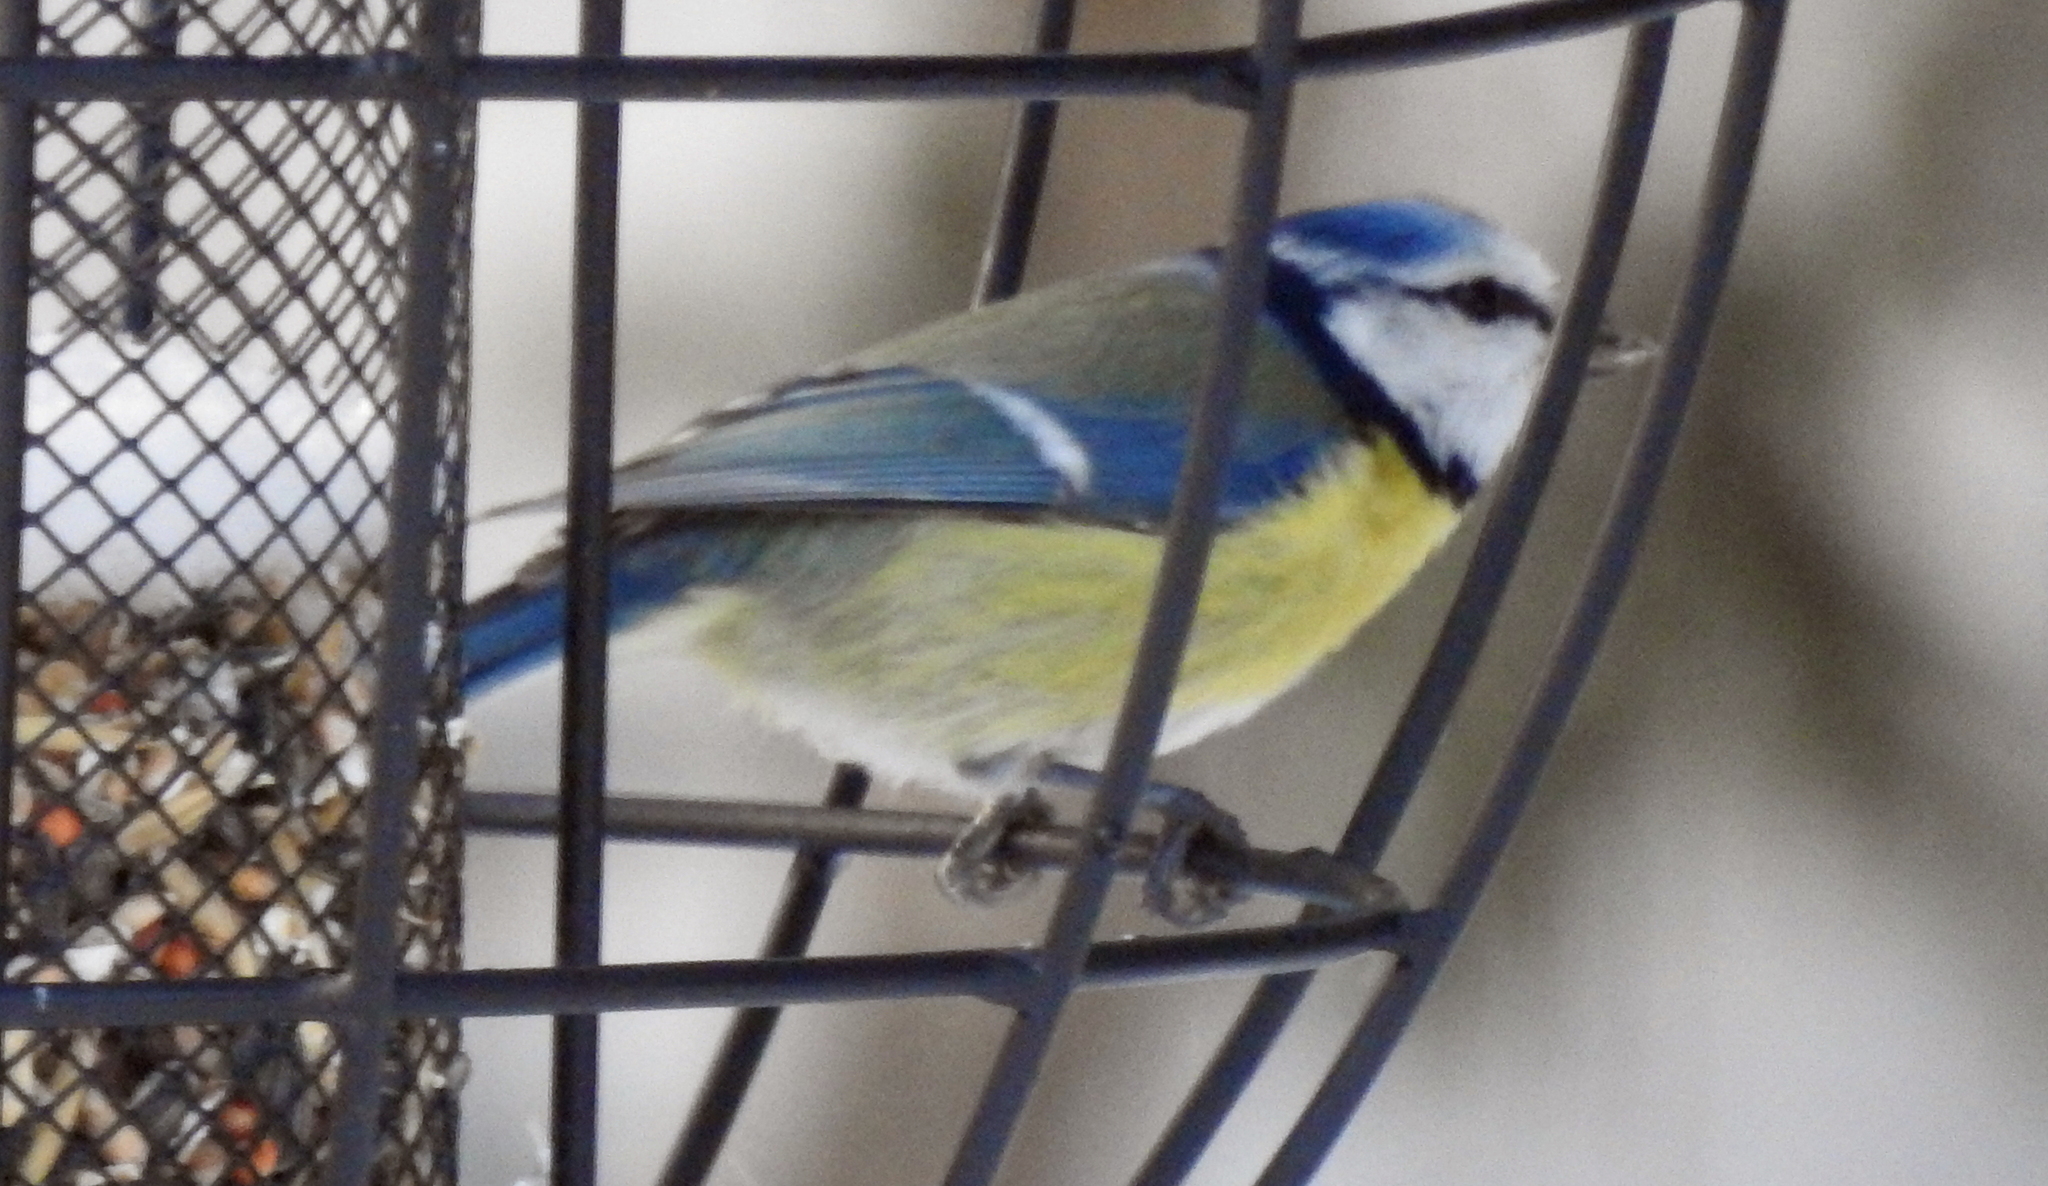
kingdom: Animalia
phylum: Chordata
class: Aves
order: Passeriformes
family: Paridae
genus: Cyanistes
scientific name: Cyanistes caeruleus
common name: Eurasian blue tit
